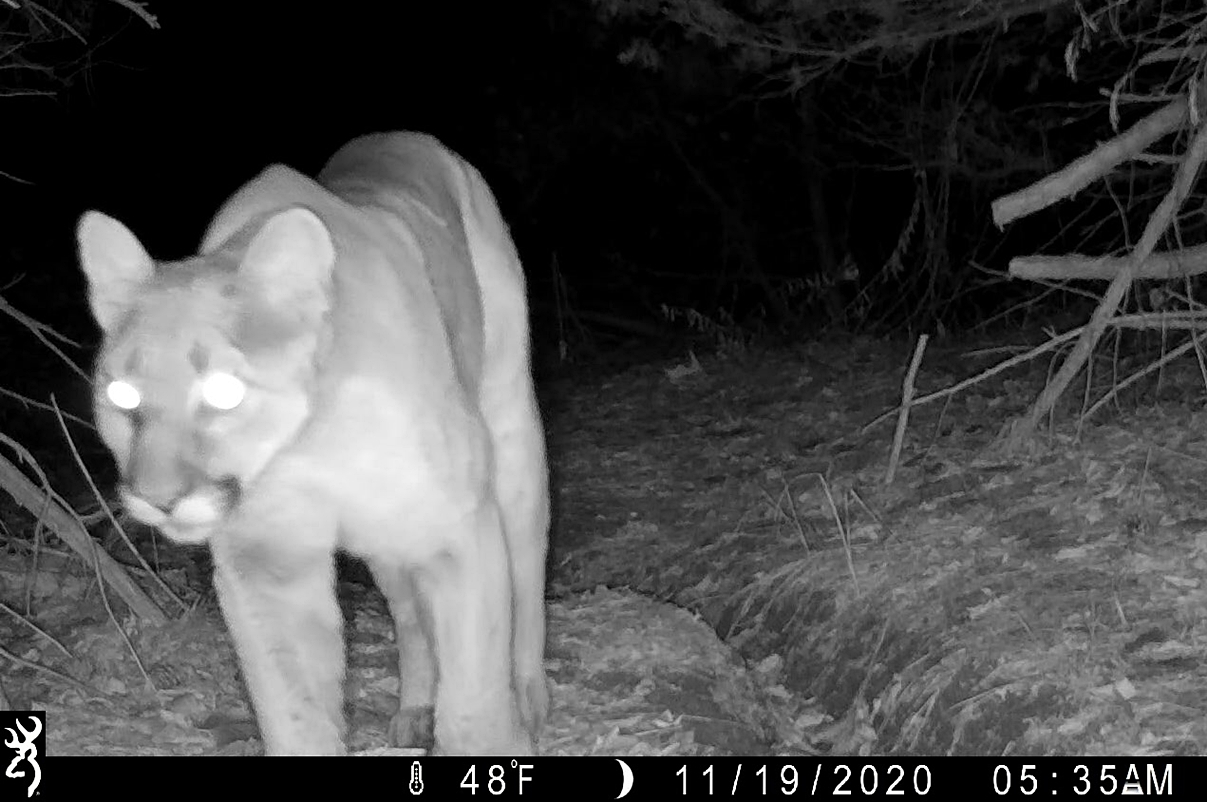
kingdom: Animalia
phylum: Chordata
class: Mammalia
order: Carnivora
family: Felidae
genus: Puma
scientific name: Puma concolor
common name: Puma
